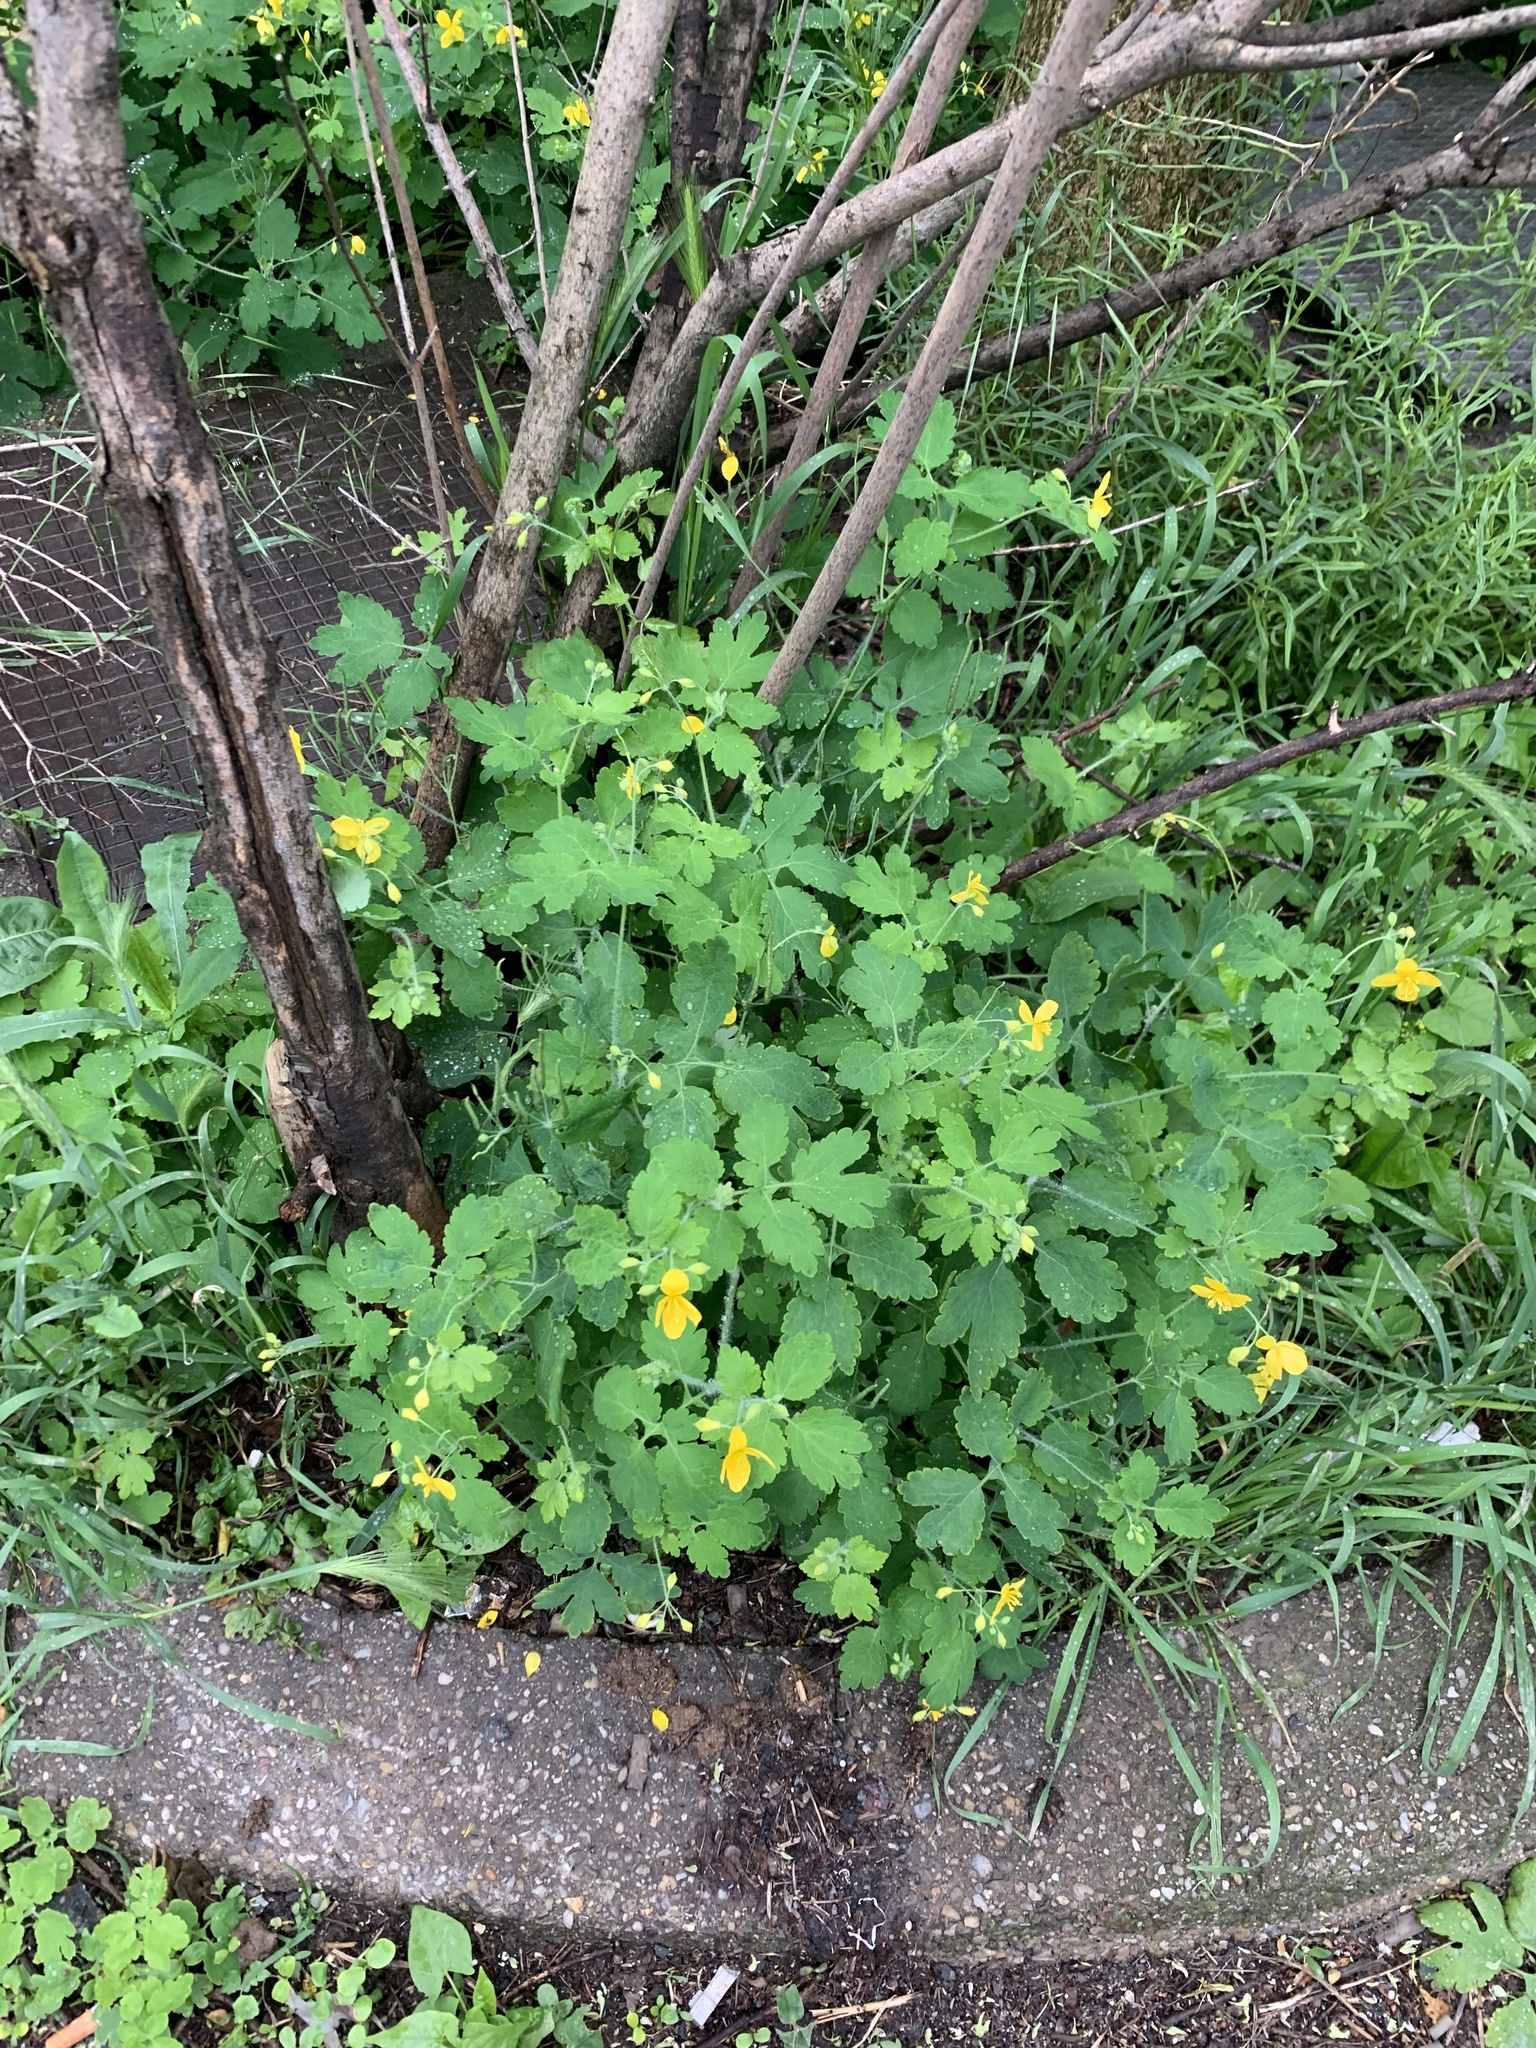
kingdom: Plantae
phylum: Tracheophyta
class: Magnoliopsida
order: Ranunculales
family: Papaveraceae
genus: Chelidonium
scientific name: Chelidonium majus
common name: Greater celandine
